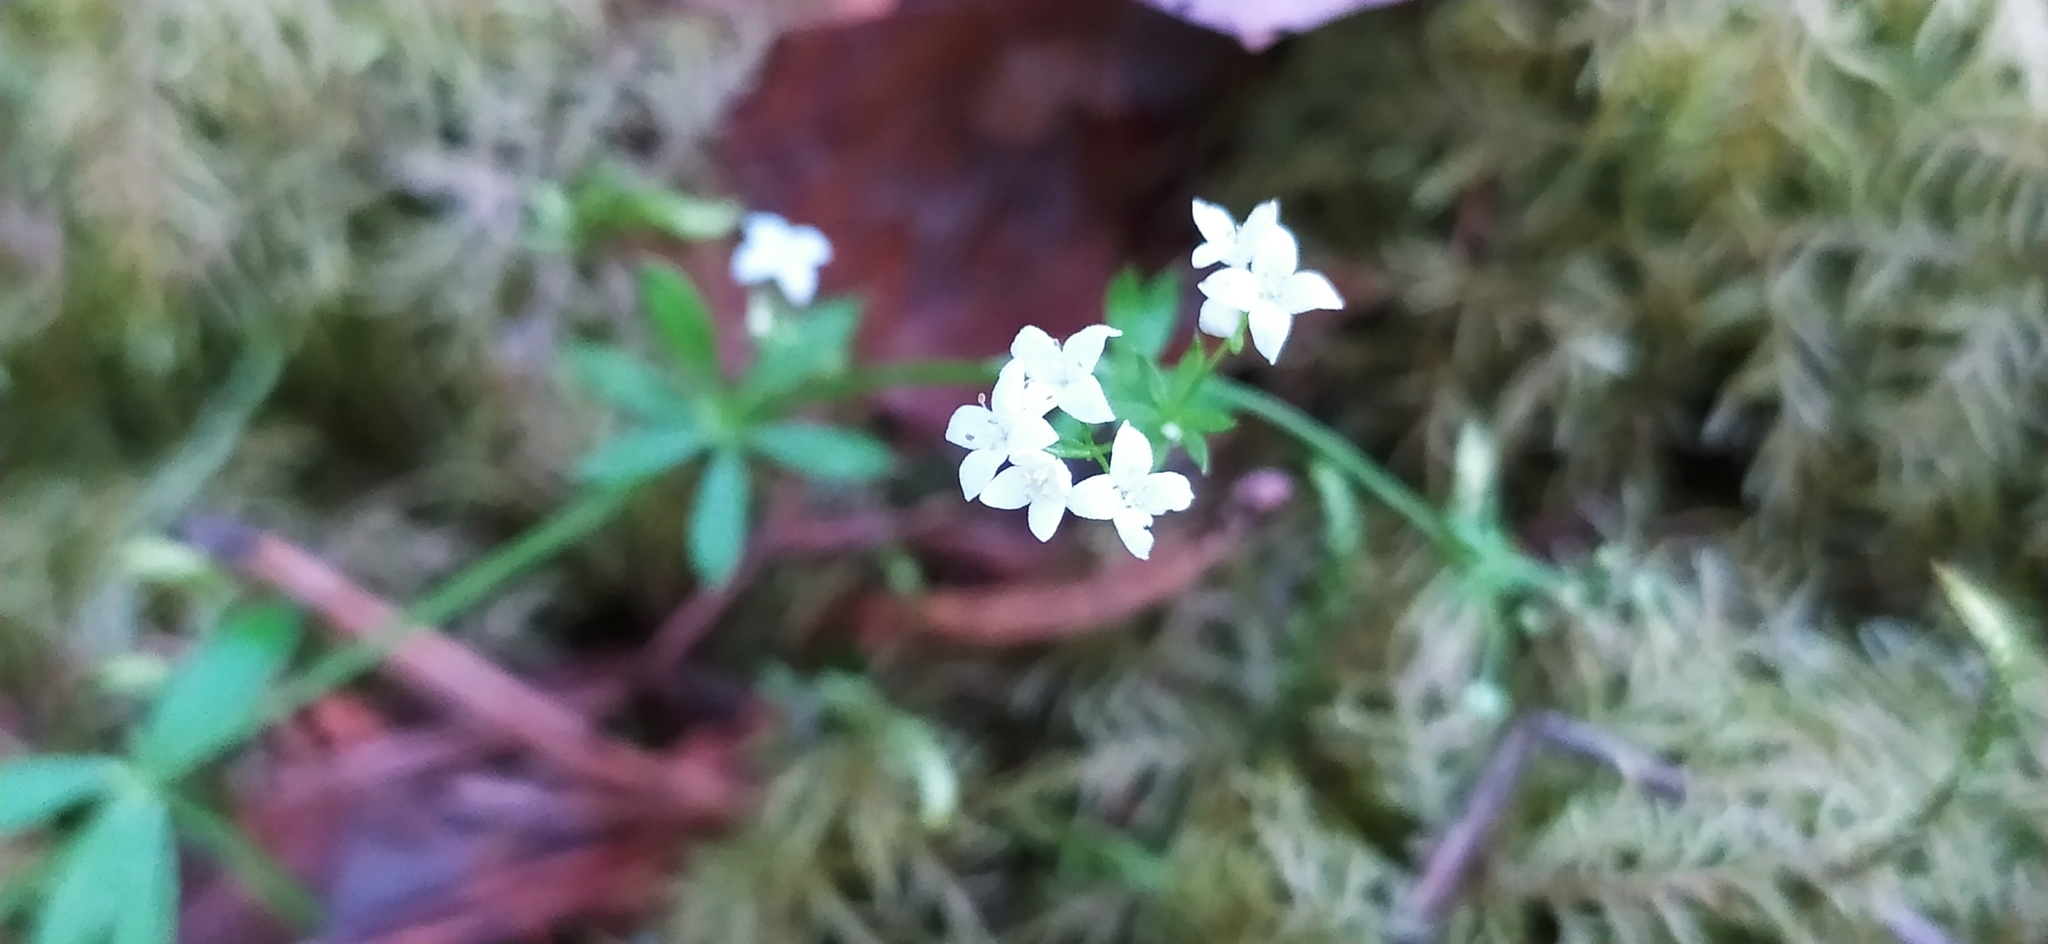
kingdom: Plantae
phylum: Tracheophyta
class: Magnoliopsida
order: Gentianales
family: Rubiaceae
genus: Galium
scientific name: Galium uliginosum
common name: Fen bedstraw
